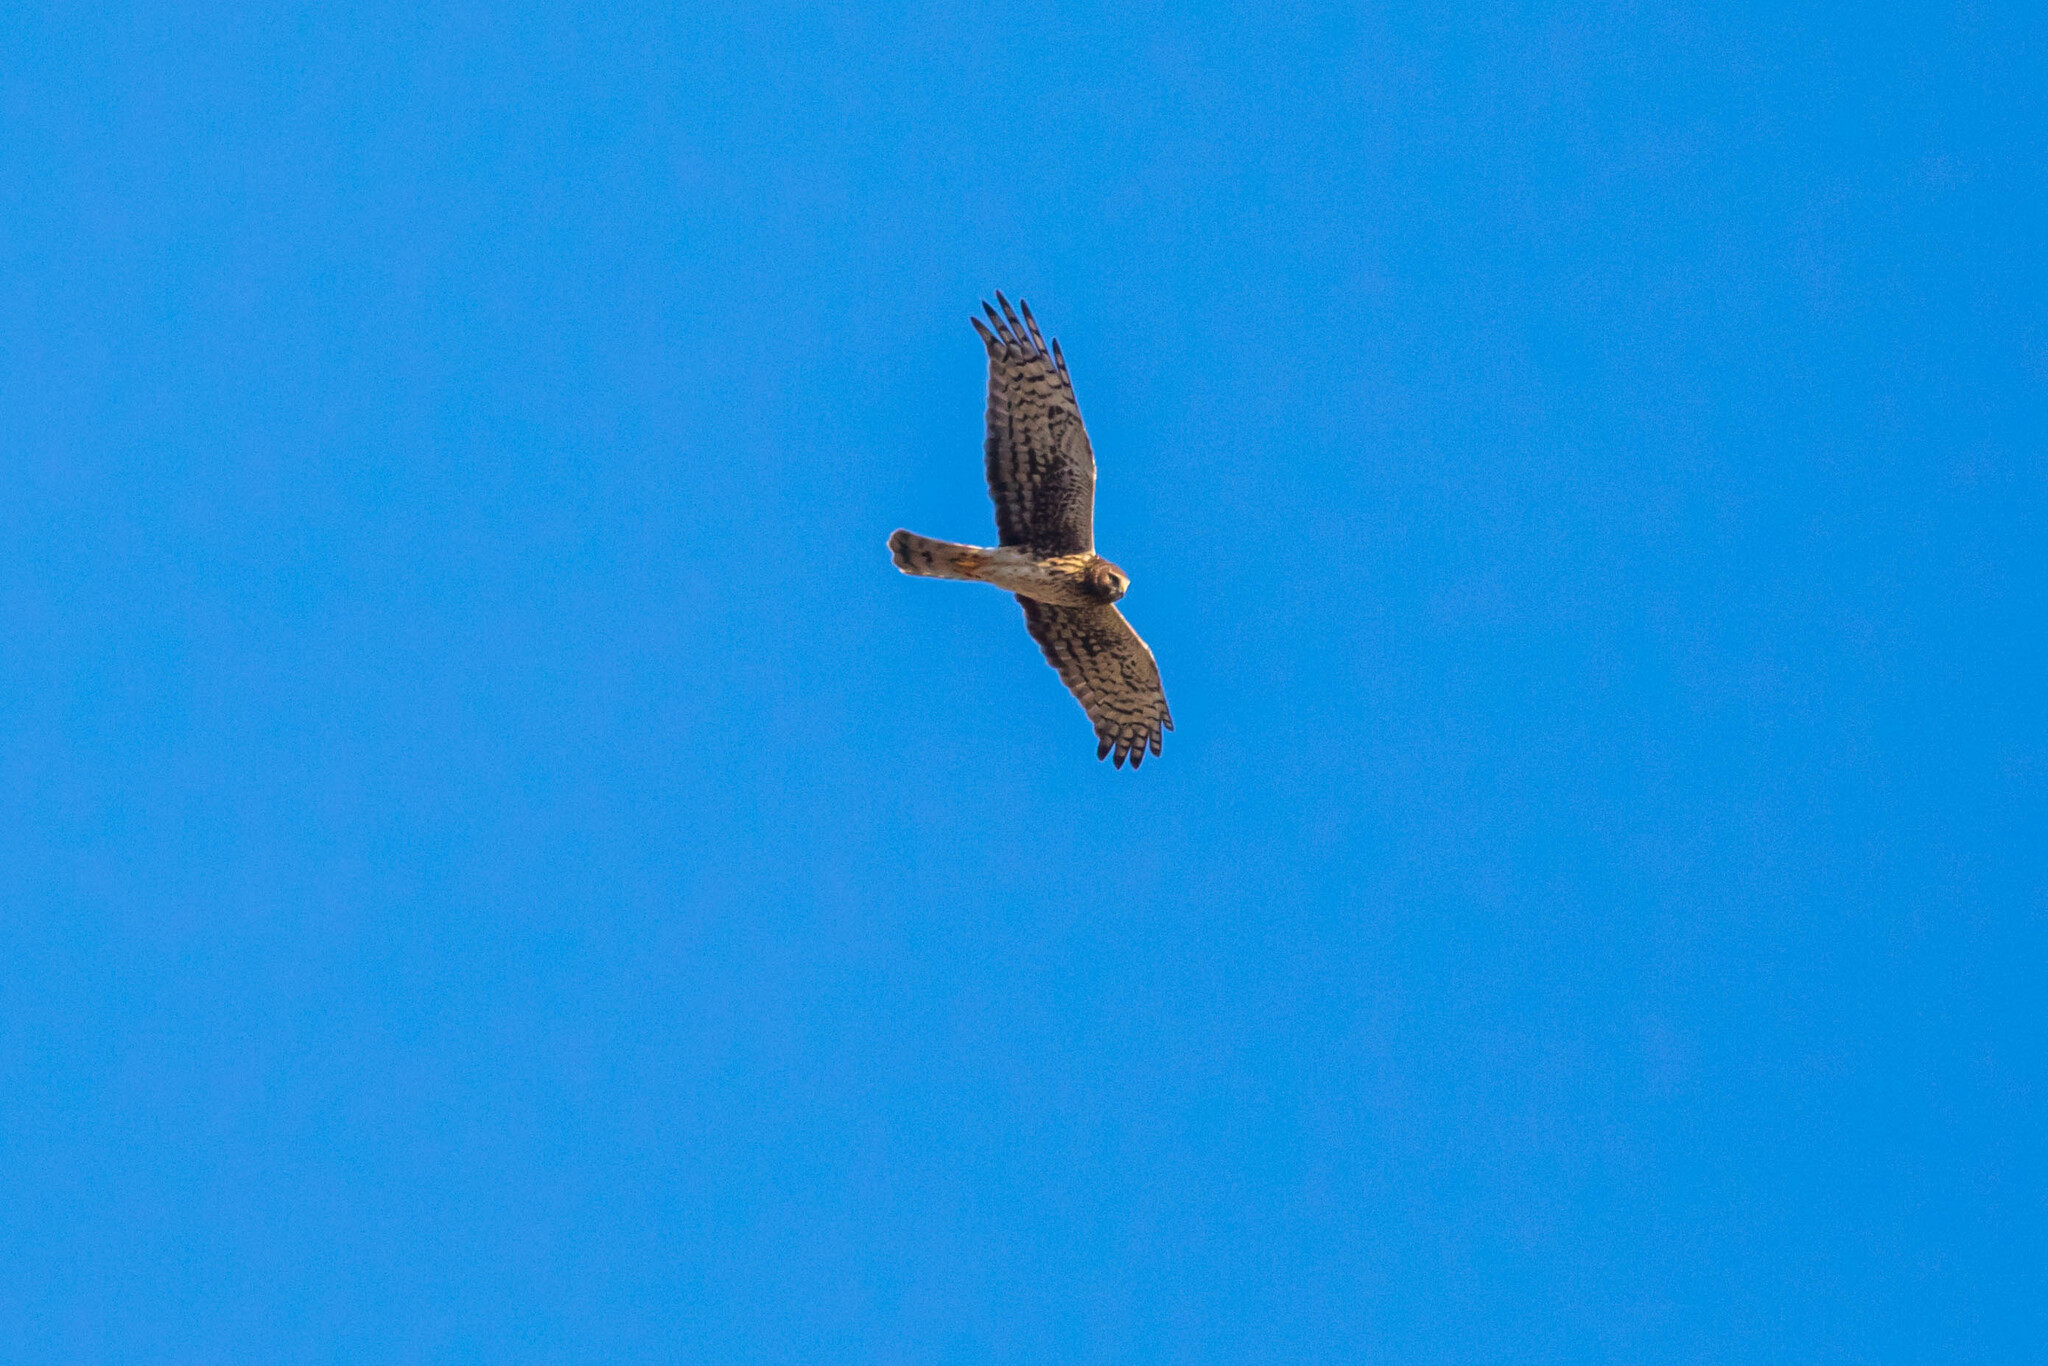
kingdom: Animalia
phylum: Chordata
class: Aves
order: Accipitriformes
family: Accipitridae
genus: Circus
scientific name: Circus cyaneus
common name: Hen harrier
